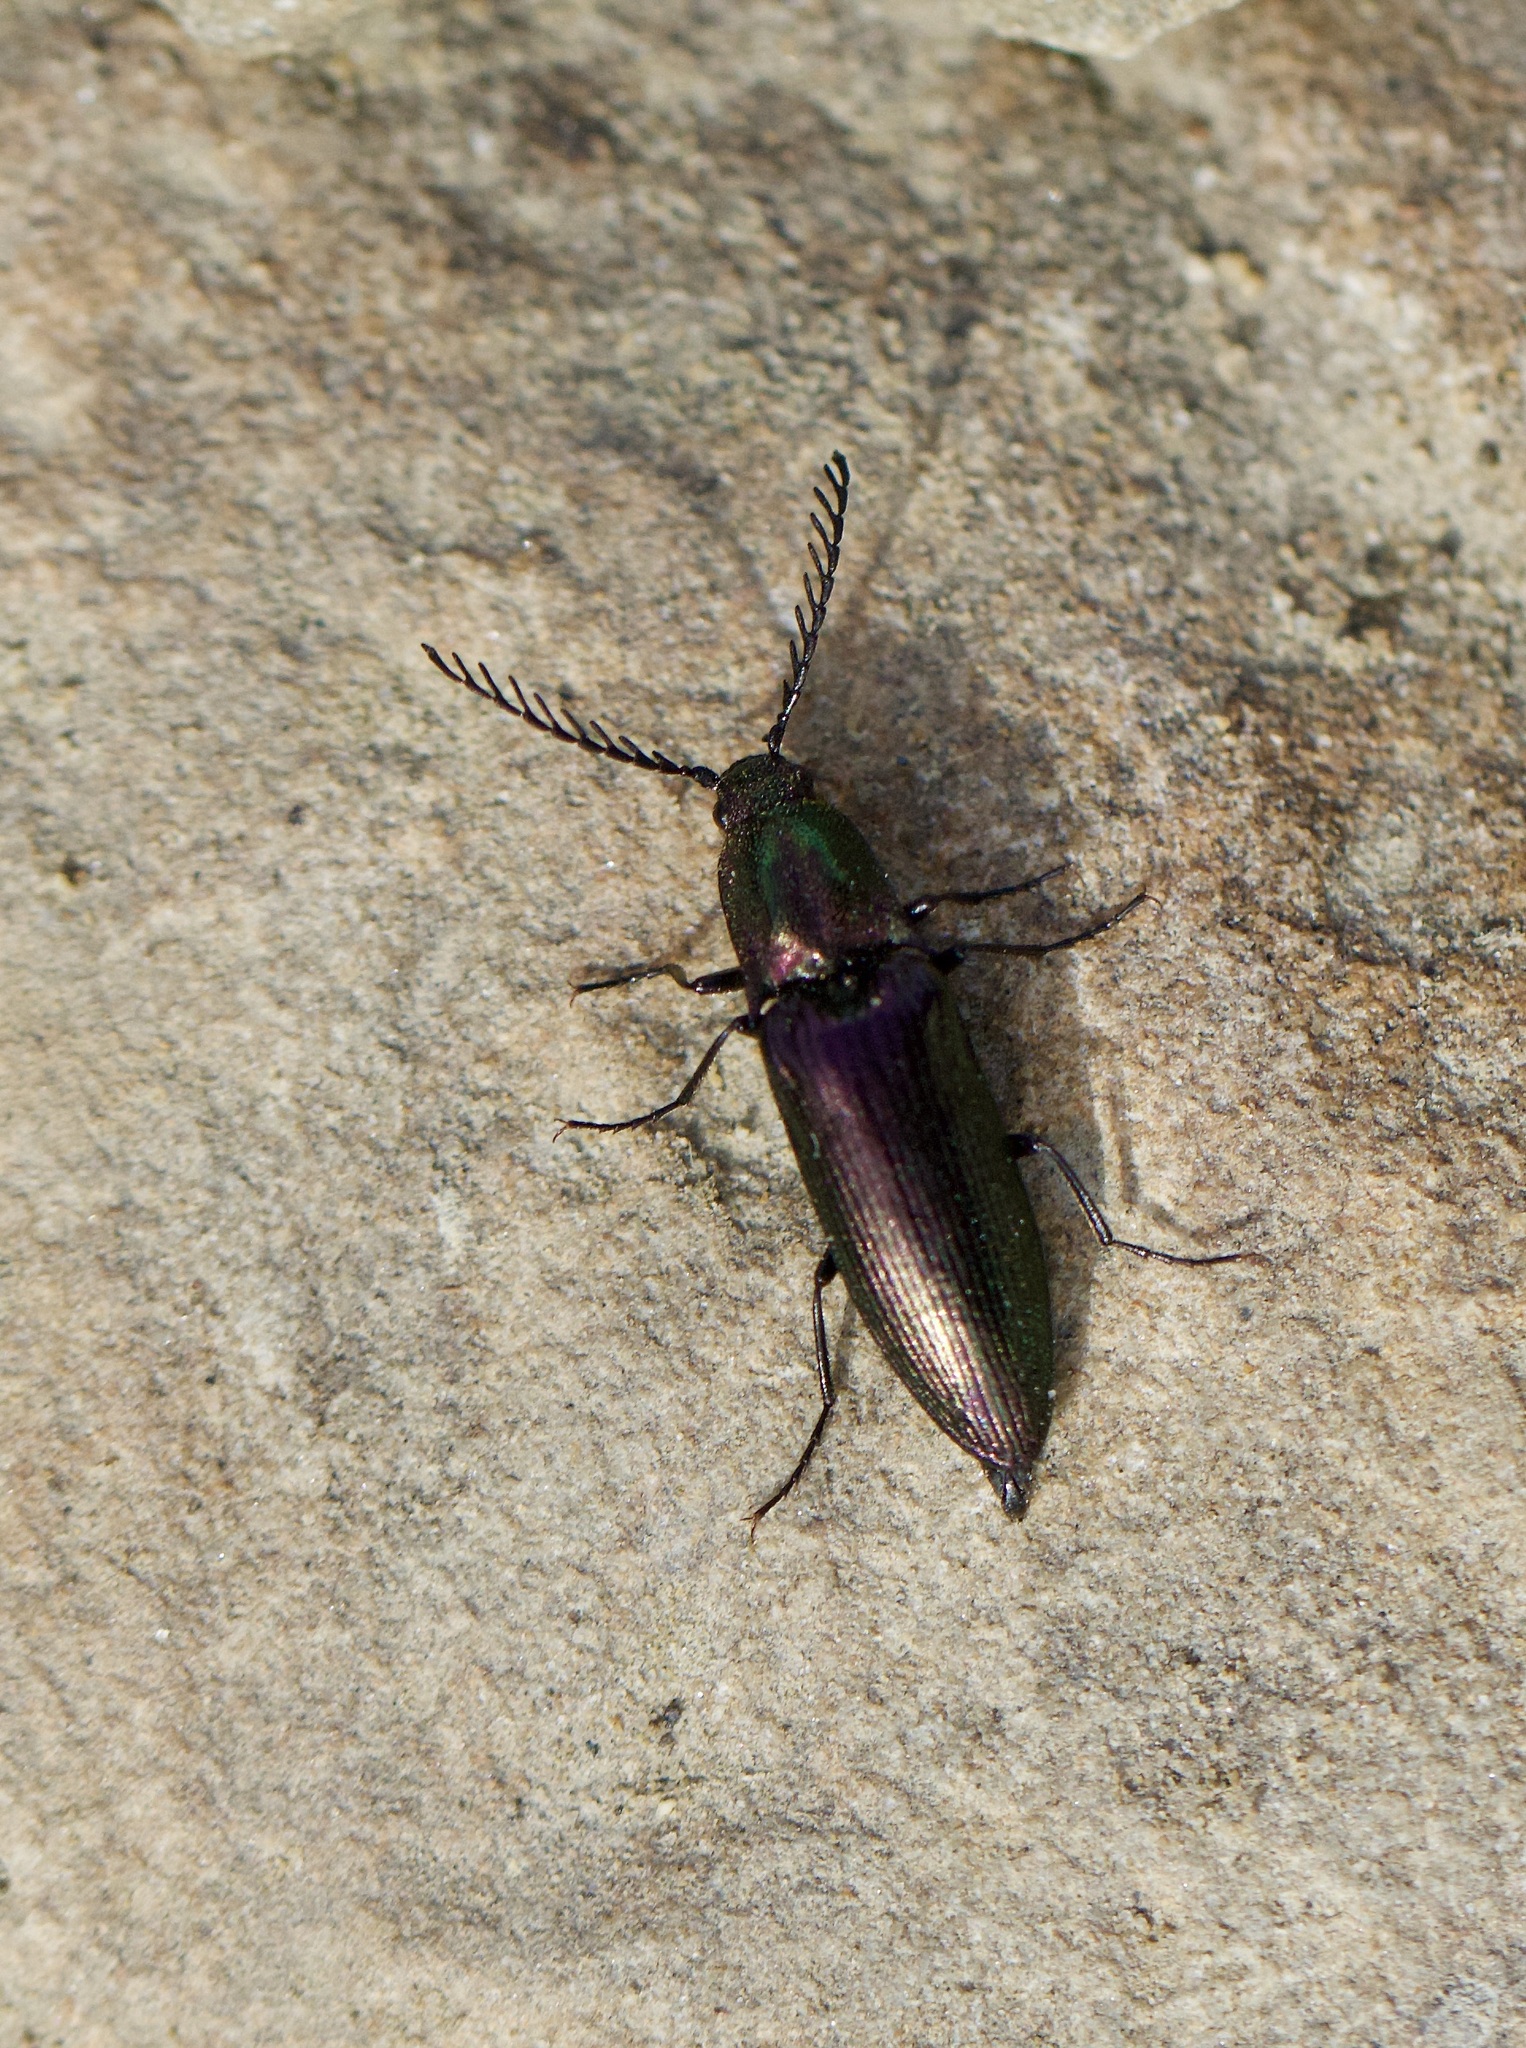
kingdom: Animalia
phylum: Arthropoda
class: Insecta
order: Coleoptera
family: Elateridae
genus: Ctenicera
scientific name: Ctenicera cuprea
